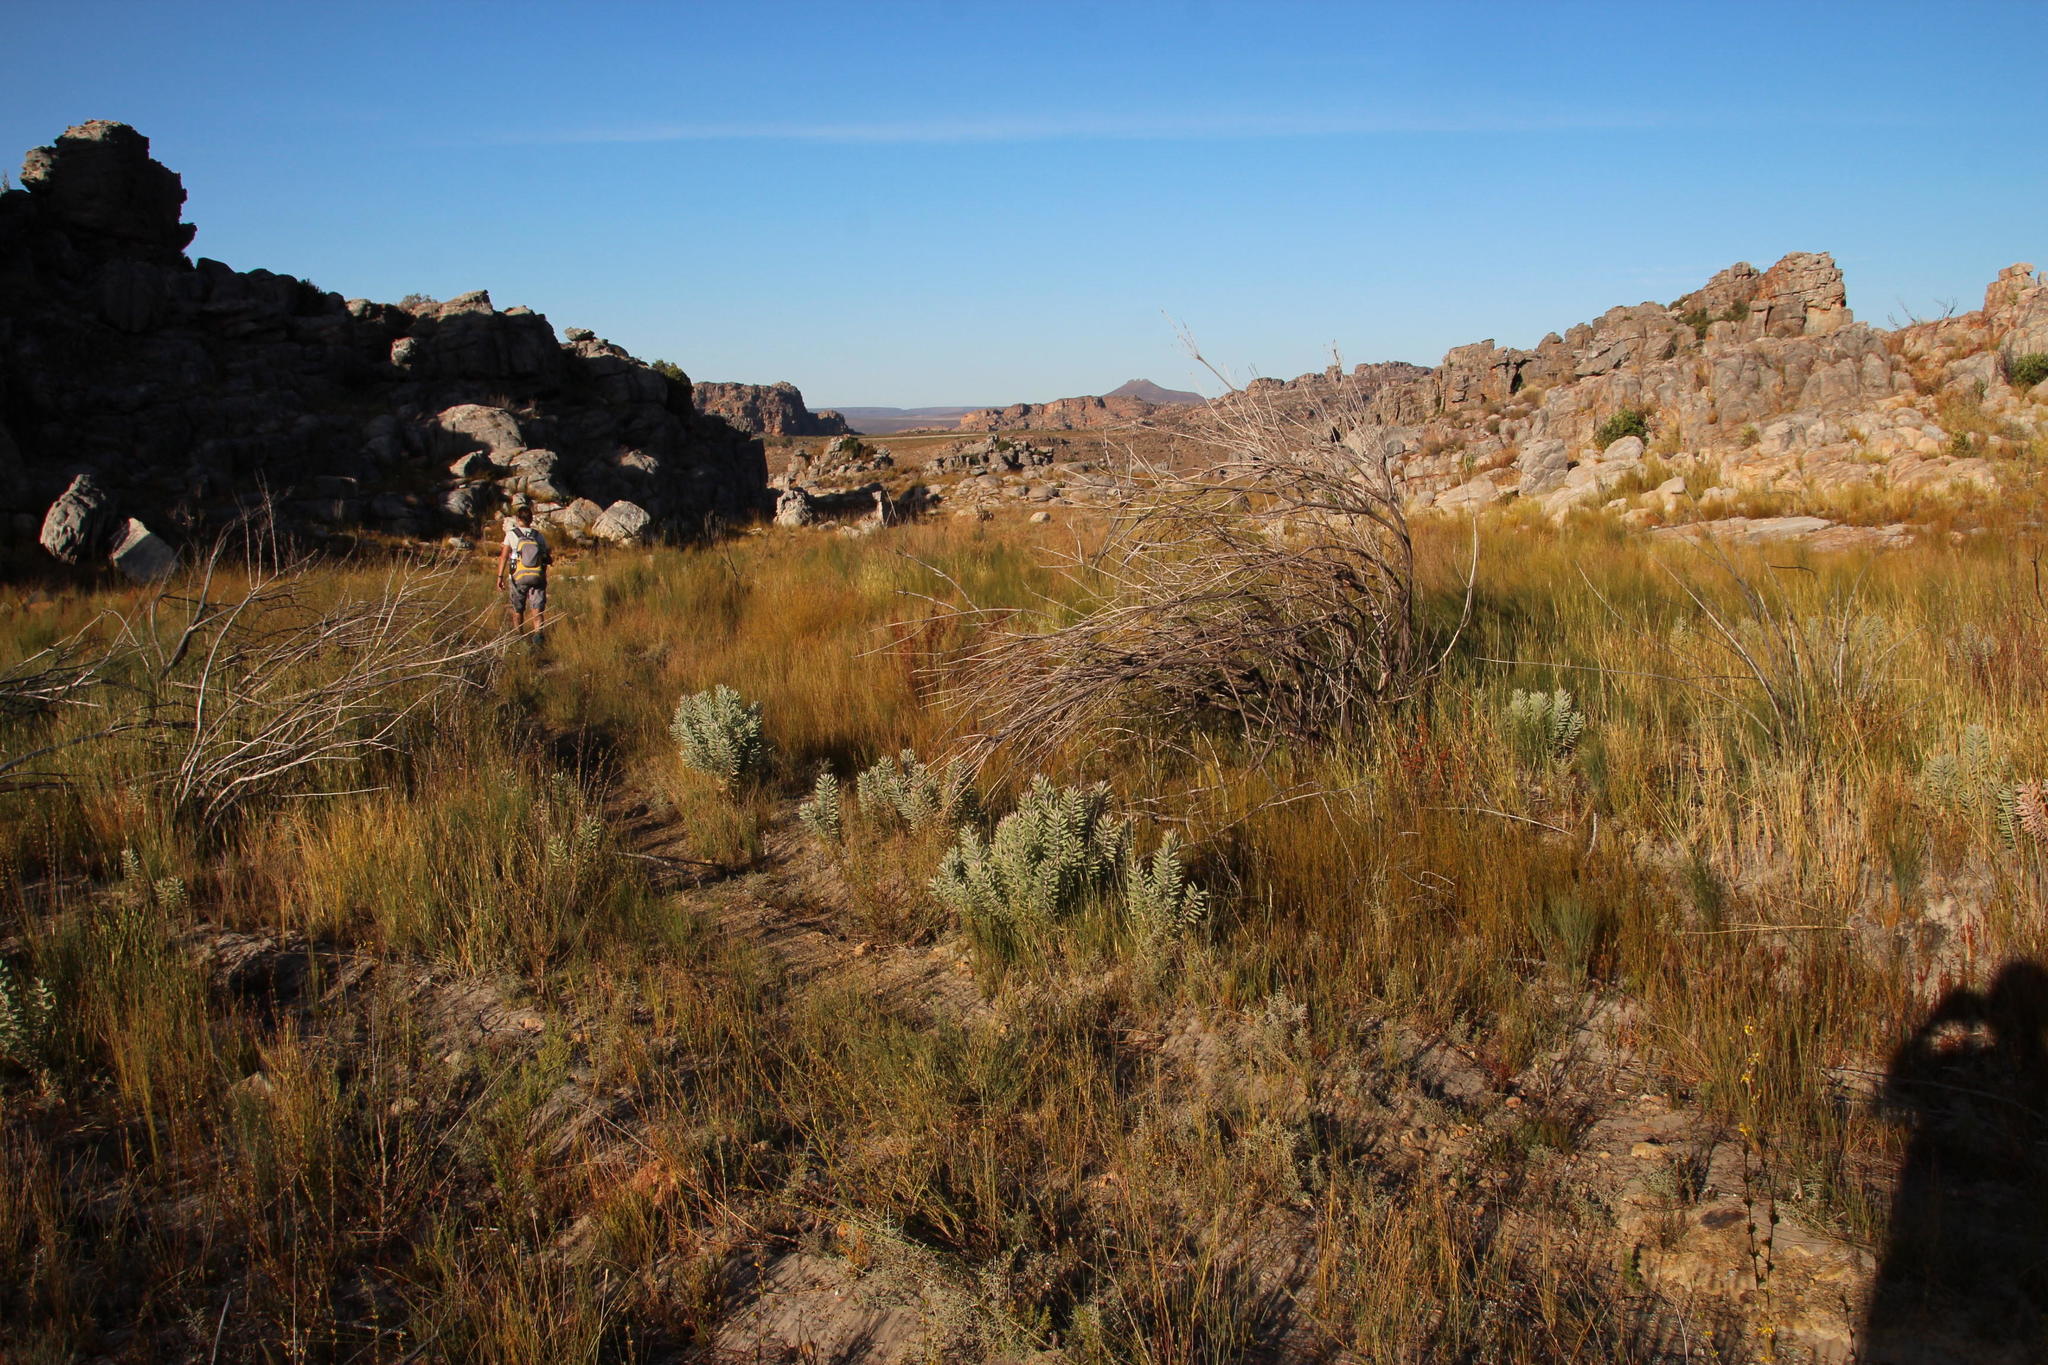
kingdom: Plantae
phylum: Tracheophyta
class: Magnoliopsida
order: Proteales
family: Proteaceae
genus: Leucospermum
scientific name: Leucospermum reflexum
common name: Rocket pincushion
